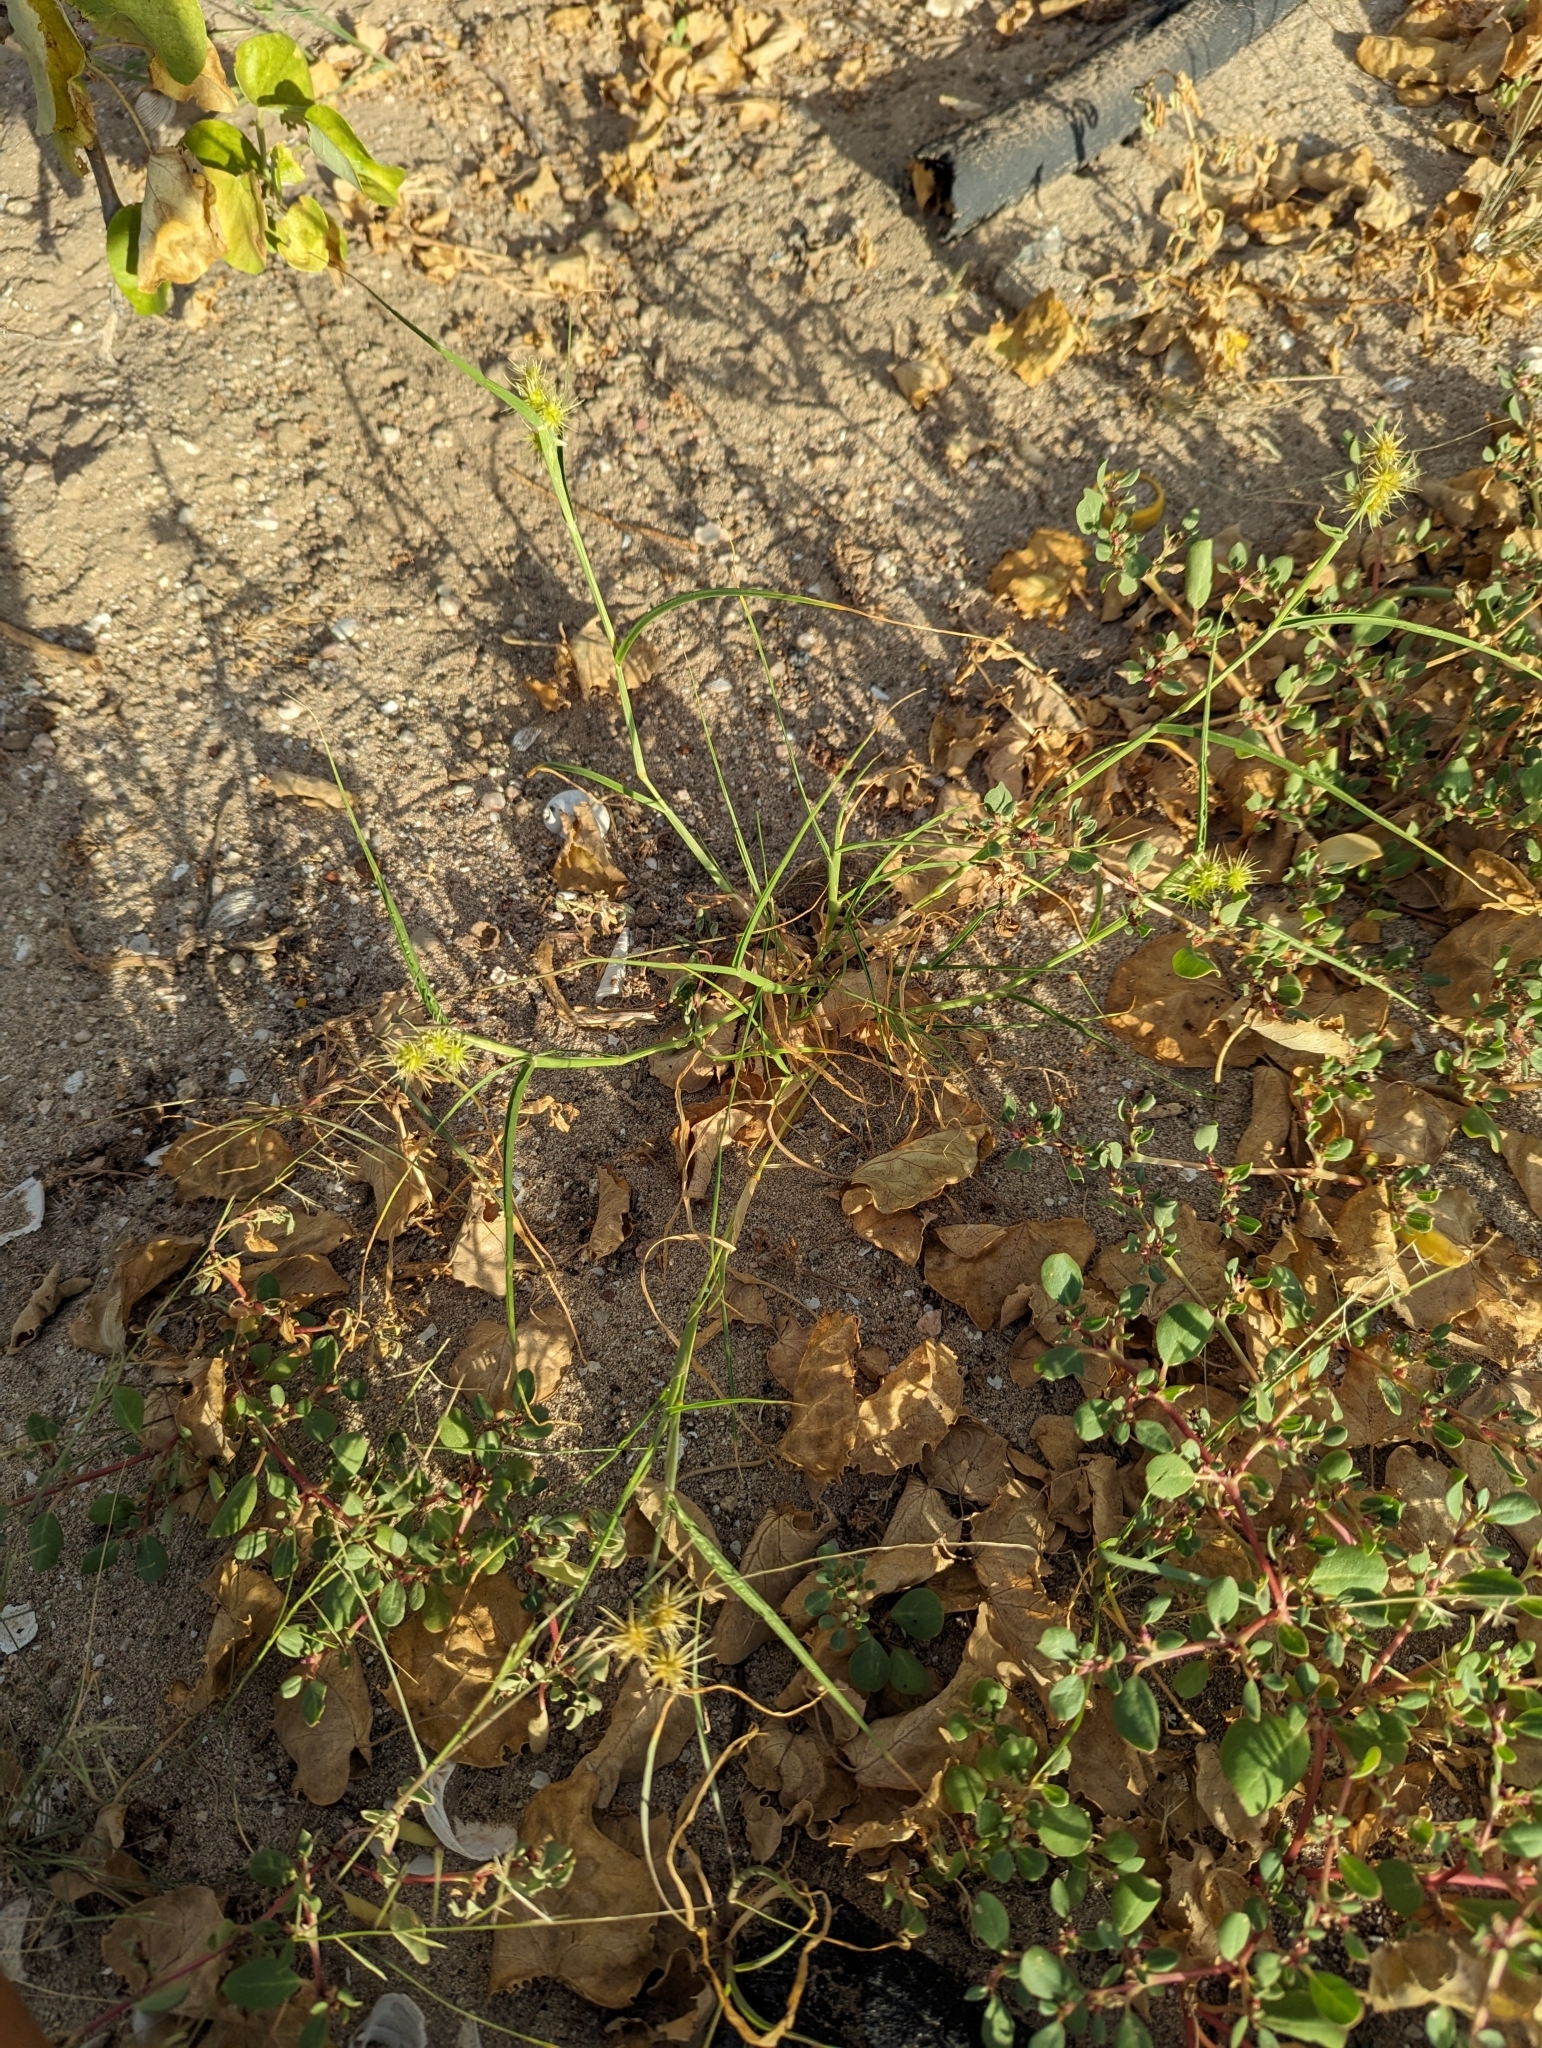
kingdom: Plantae
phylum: Tracheophyta
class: Liliopsida
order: Poales
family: Poaceae
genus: Cenchrus
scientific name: Cenchrus palmeri
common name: Giant sandbur
